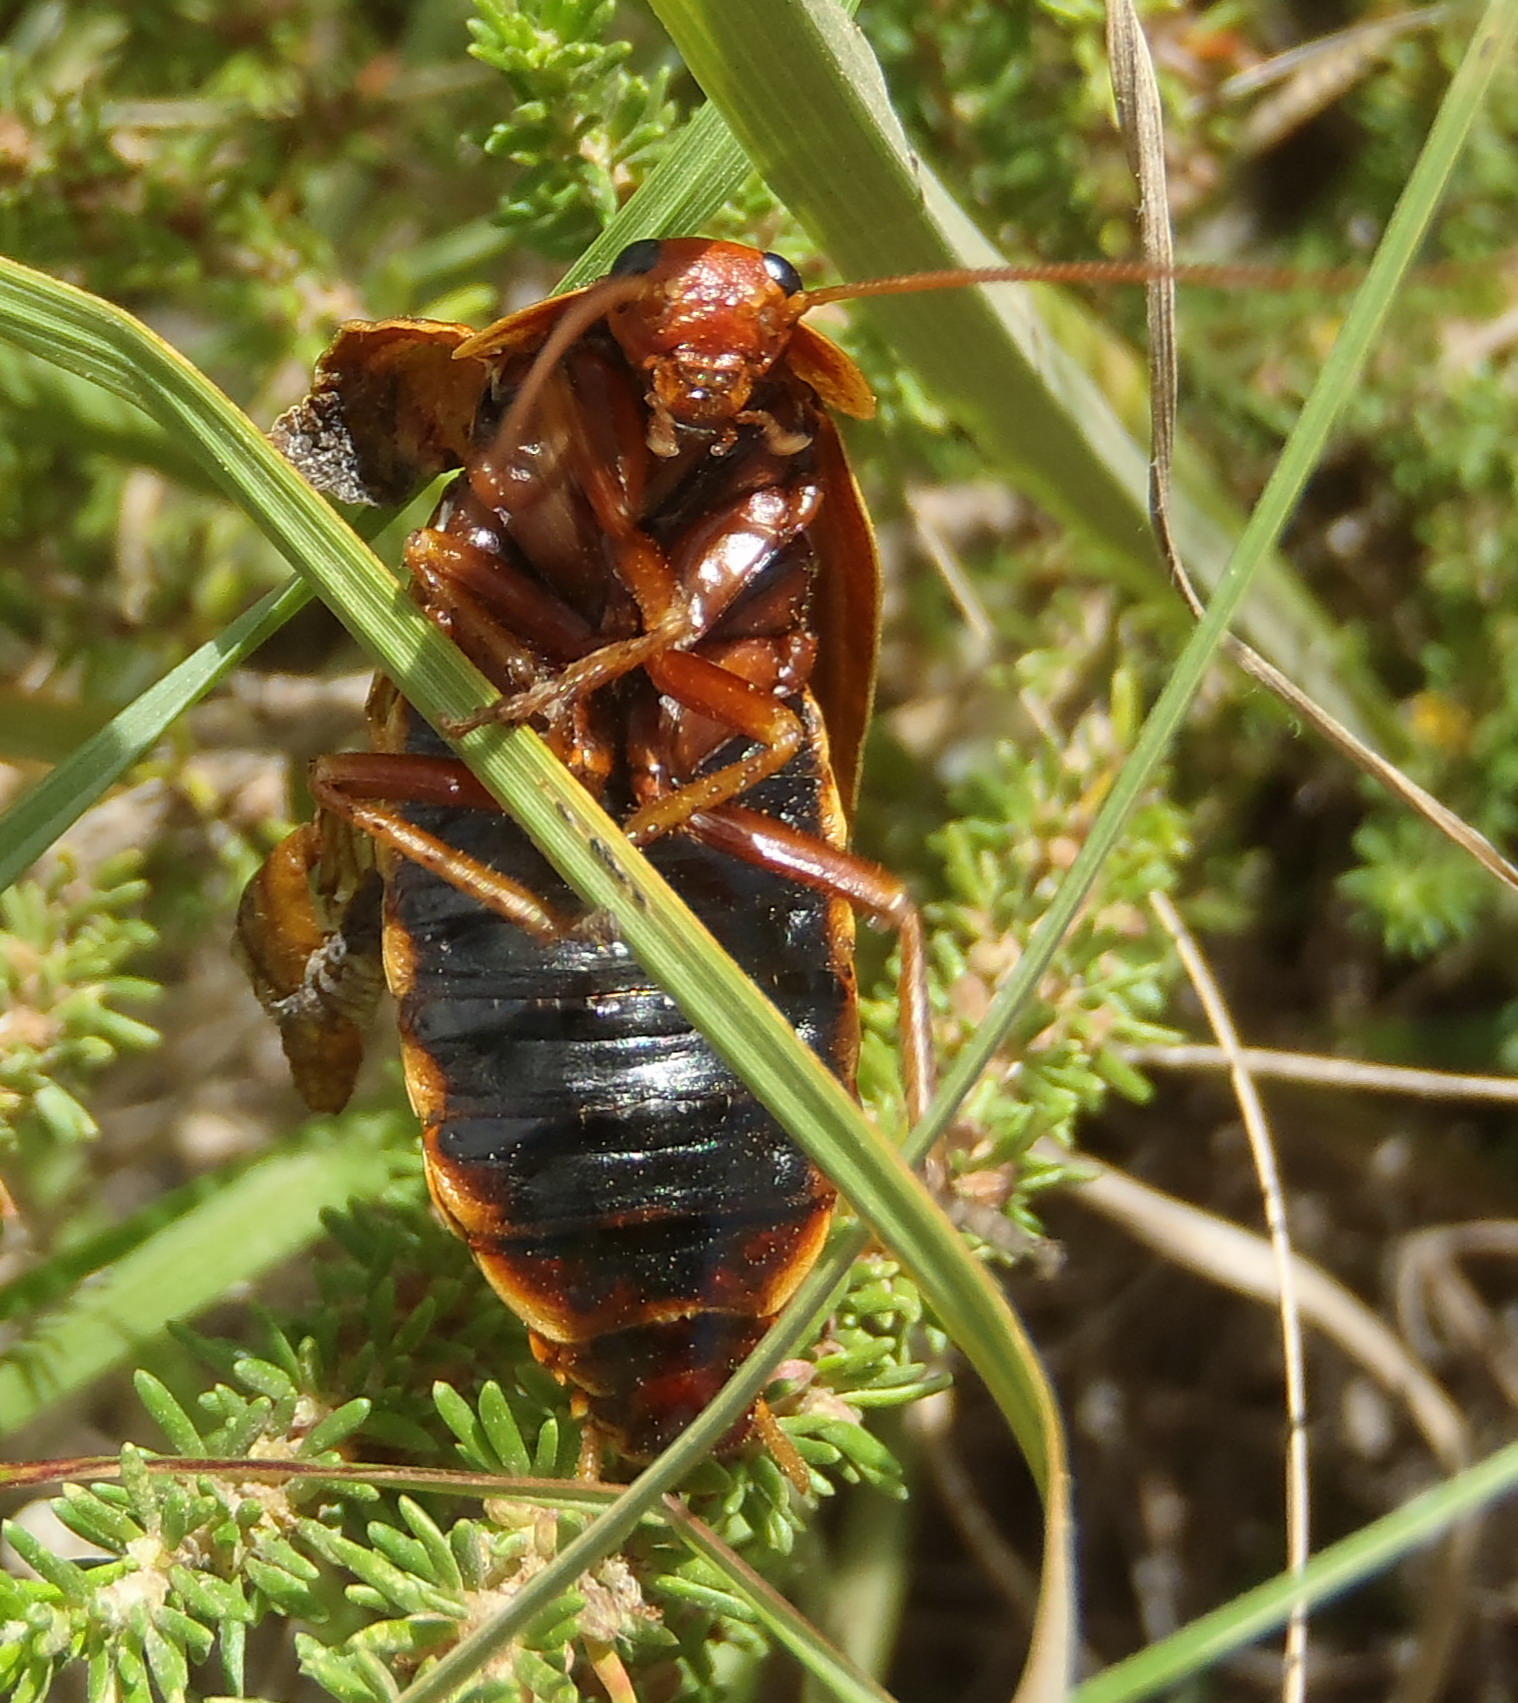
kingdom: Animalia
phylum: Arthropoda
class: Insecta
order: Blattodea
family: Blaberidae
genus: Aptera
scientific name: Aptera fusca
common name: Cape mountain cockroach
